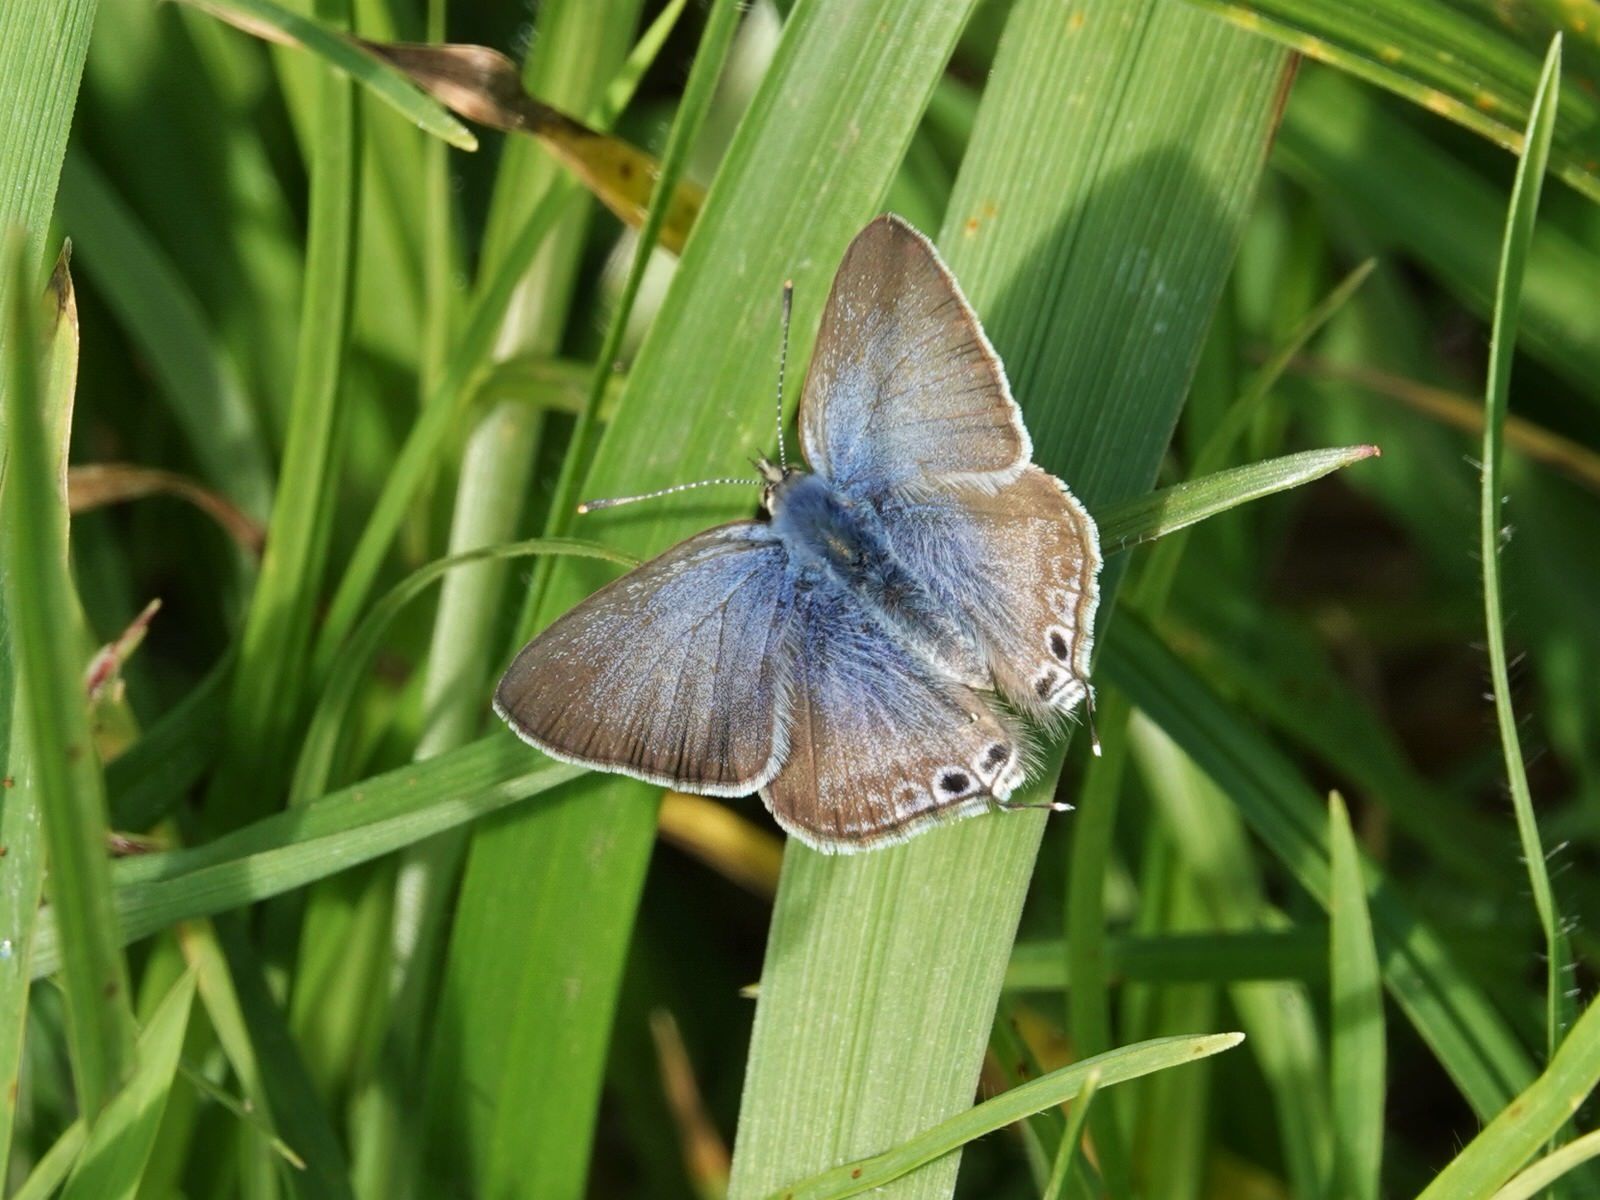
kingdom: Animalia
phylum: Arthropoda
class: Insecta
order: Lepidoptera
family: Lycaenidae
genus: Lampides
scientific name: Lampides boeticus
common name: Long-tailed blue
